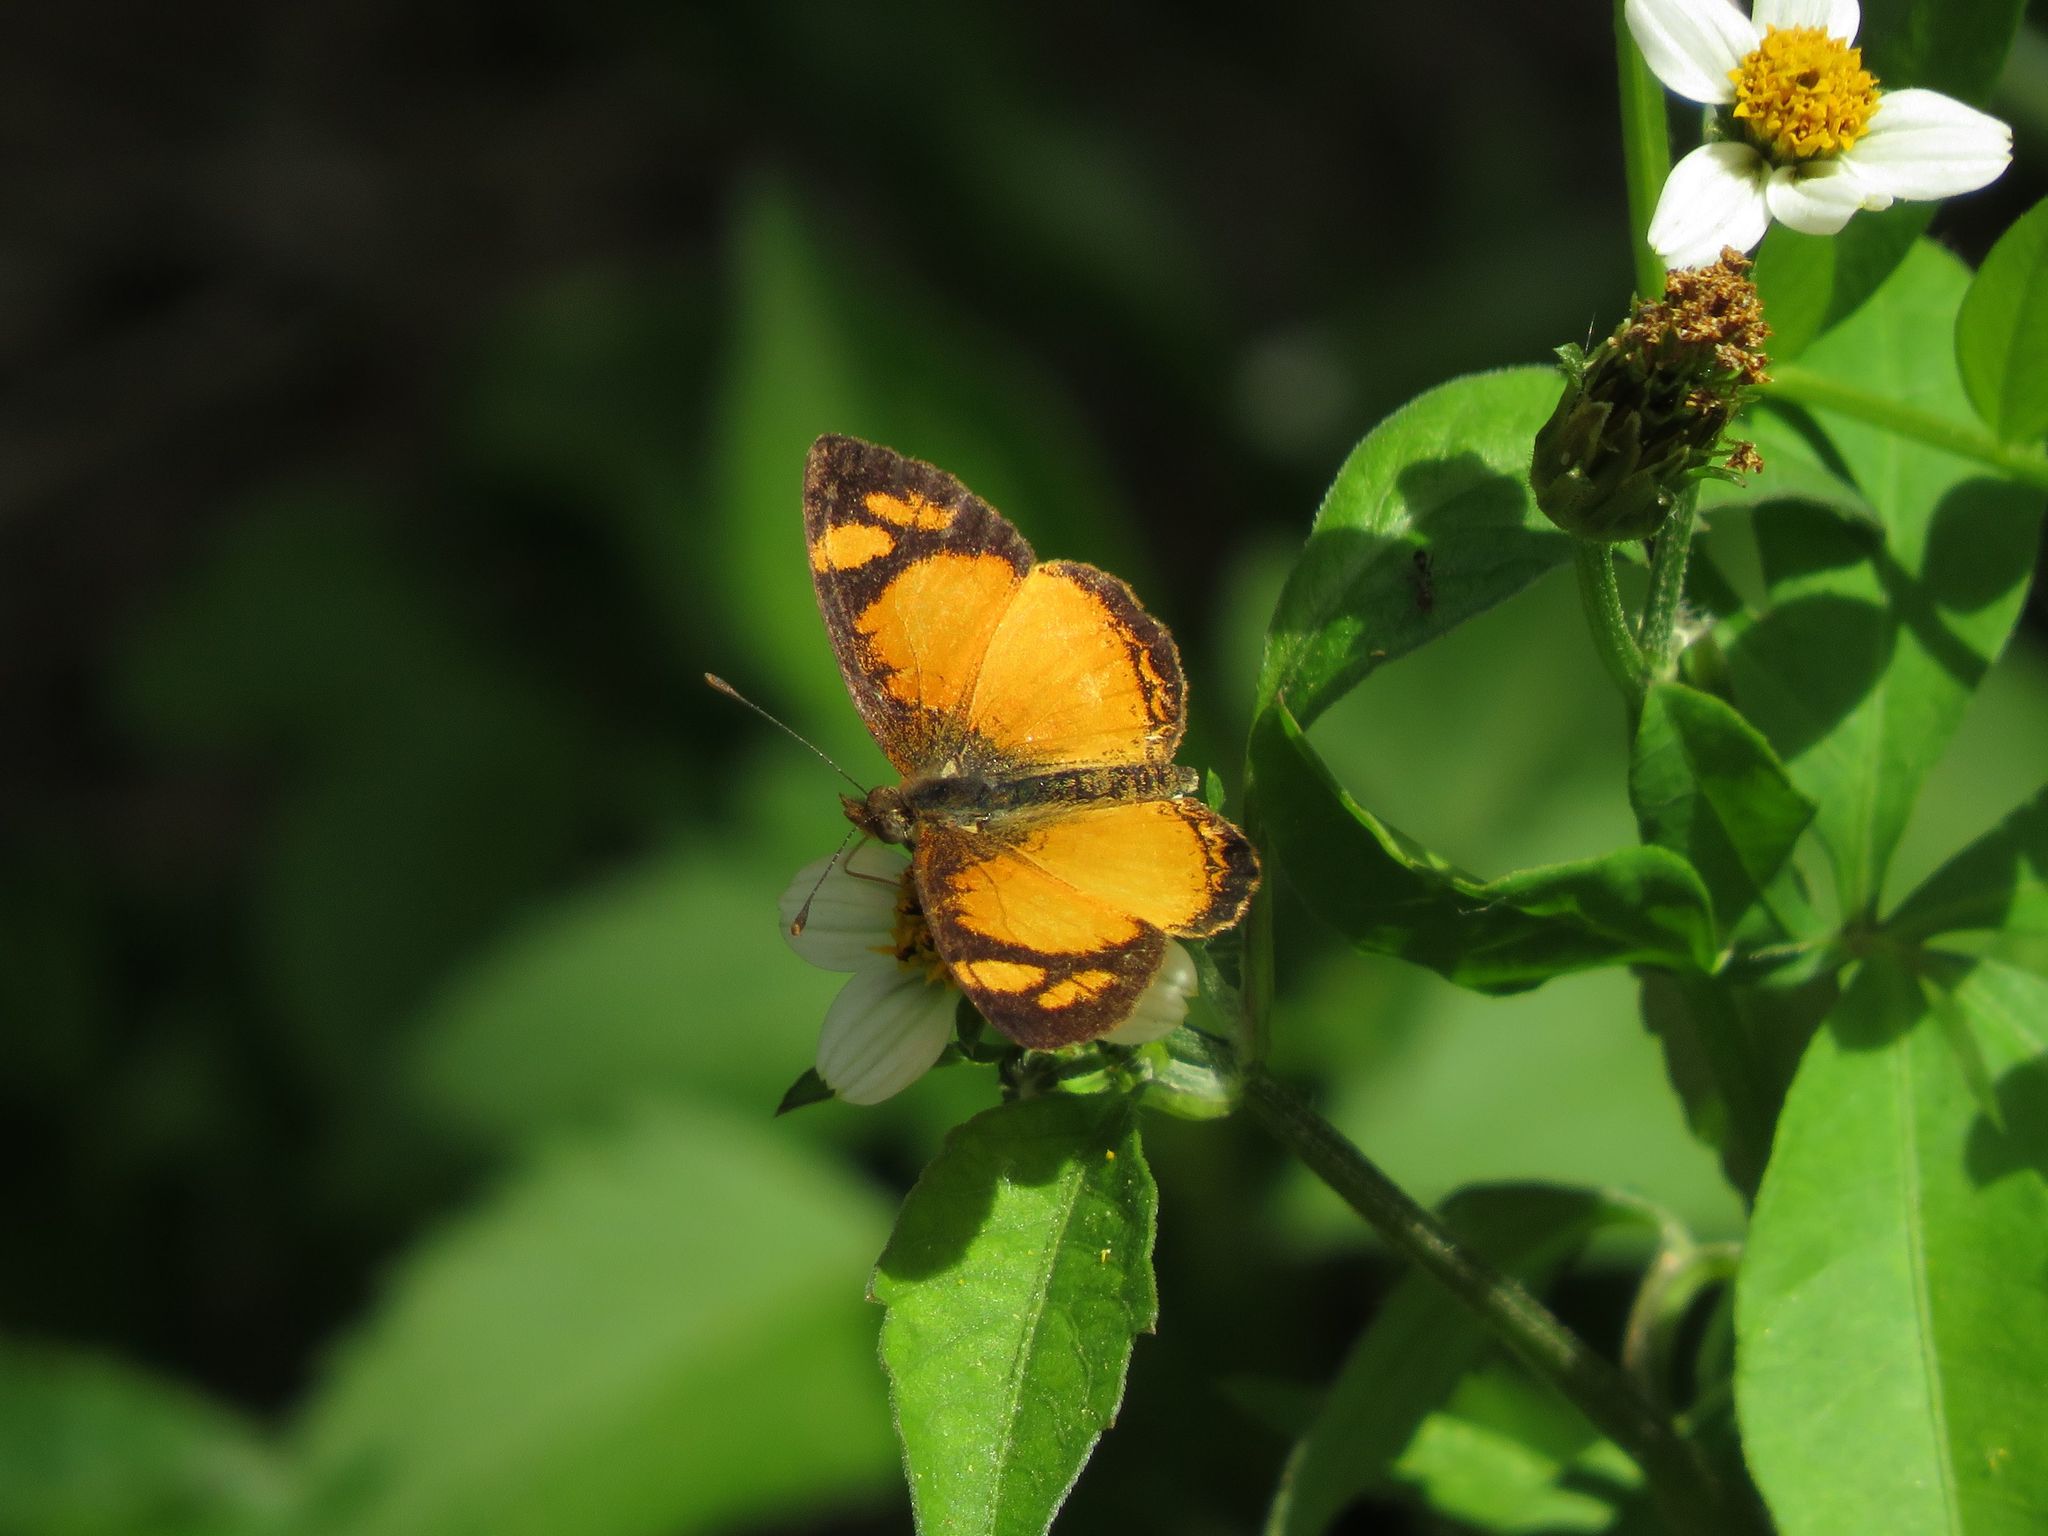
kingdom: Animalia
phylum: Arthropoda
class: Insecta
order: Lepidoptera
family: Nymphalidae
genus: Tegosa
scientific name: Tegosa claudina
